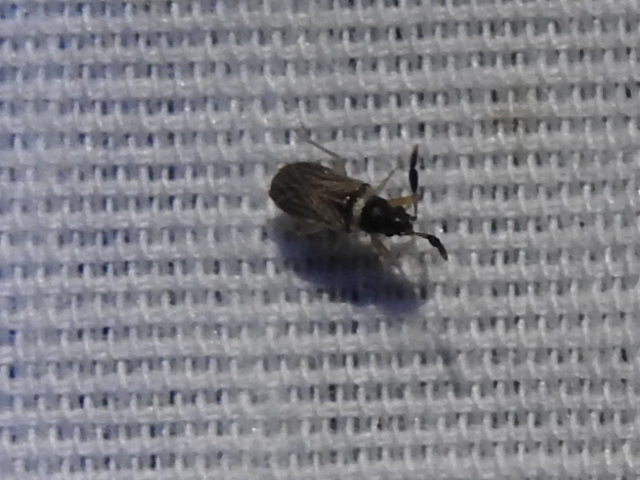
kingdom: Animalia
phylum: Arthropoda
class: Insecta
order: Hemiptera
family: Rhyparochromidae
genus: Ptochiomera
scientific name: Ptochiomera nodosa
